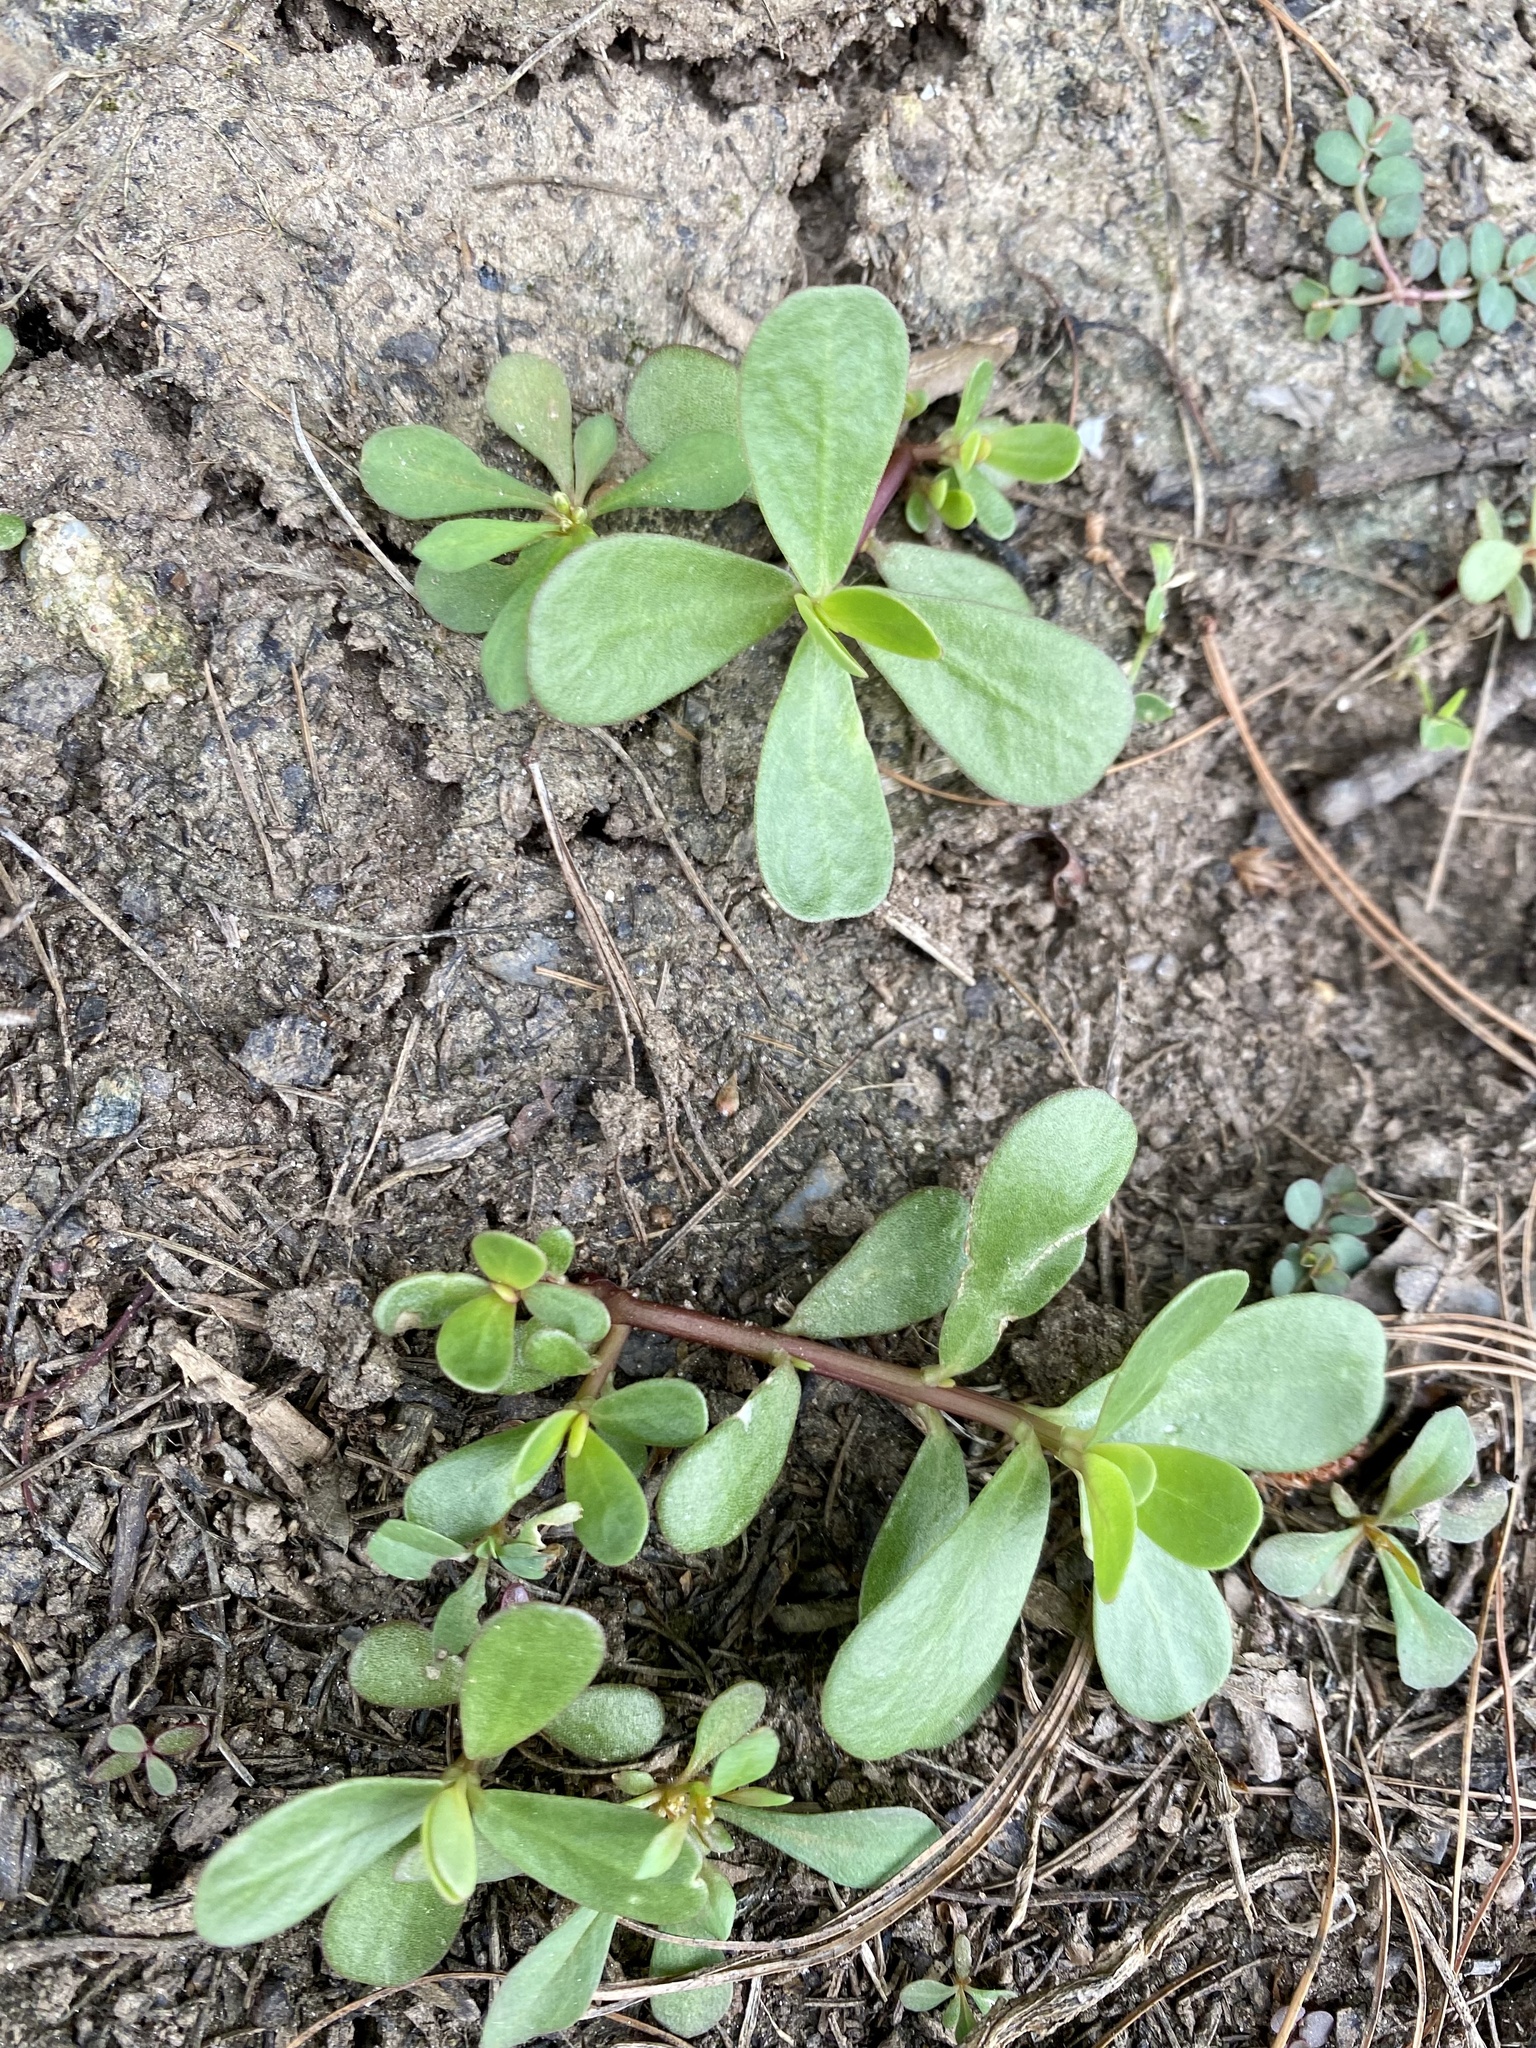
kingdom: Plantae
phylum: Tracheophyta
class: Magnoliopsida
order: Caryophyllales
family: Portulacaceae
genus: Portulaca
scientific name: Portulaca oleracea
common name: Common purslane
